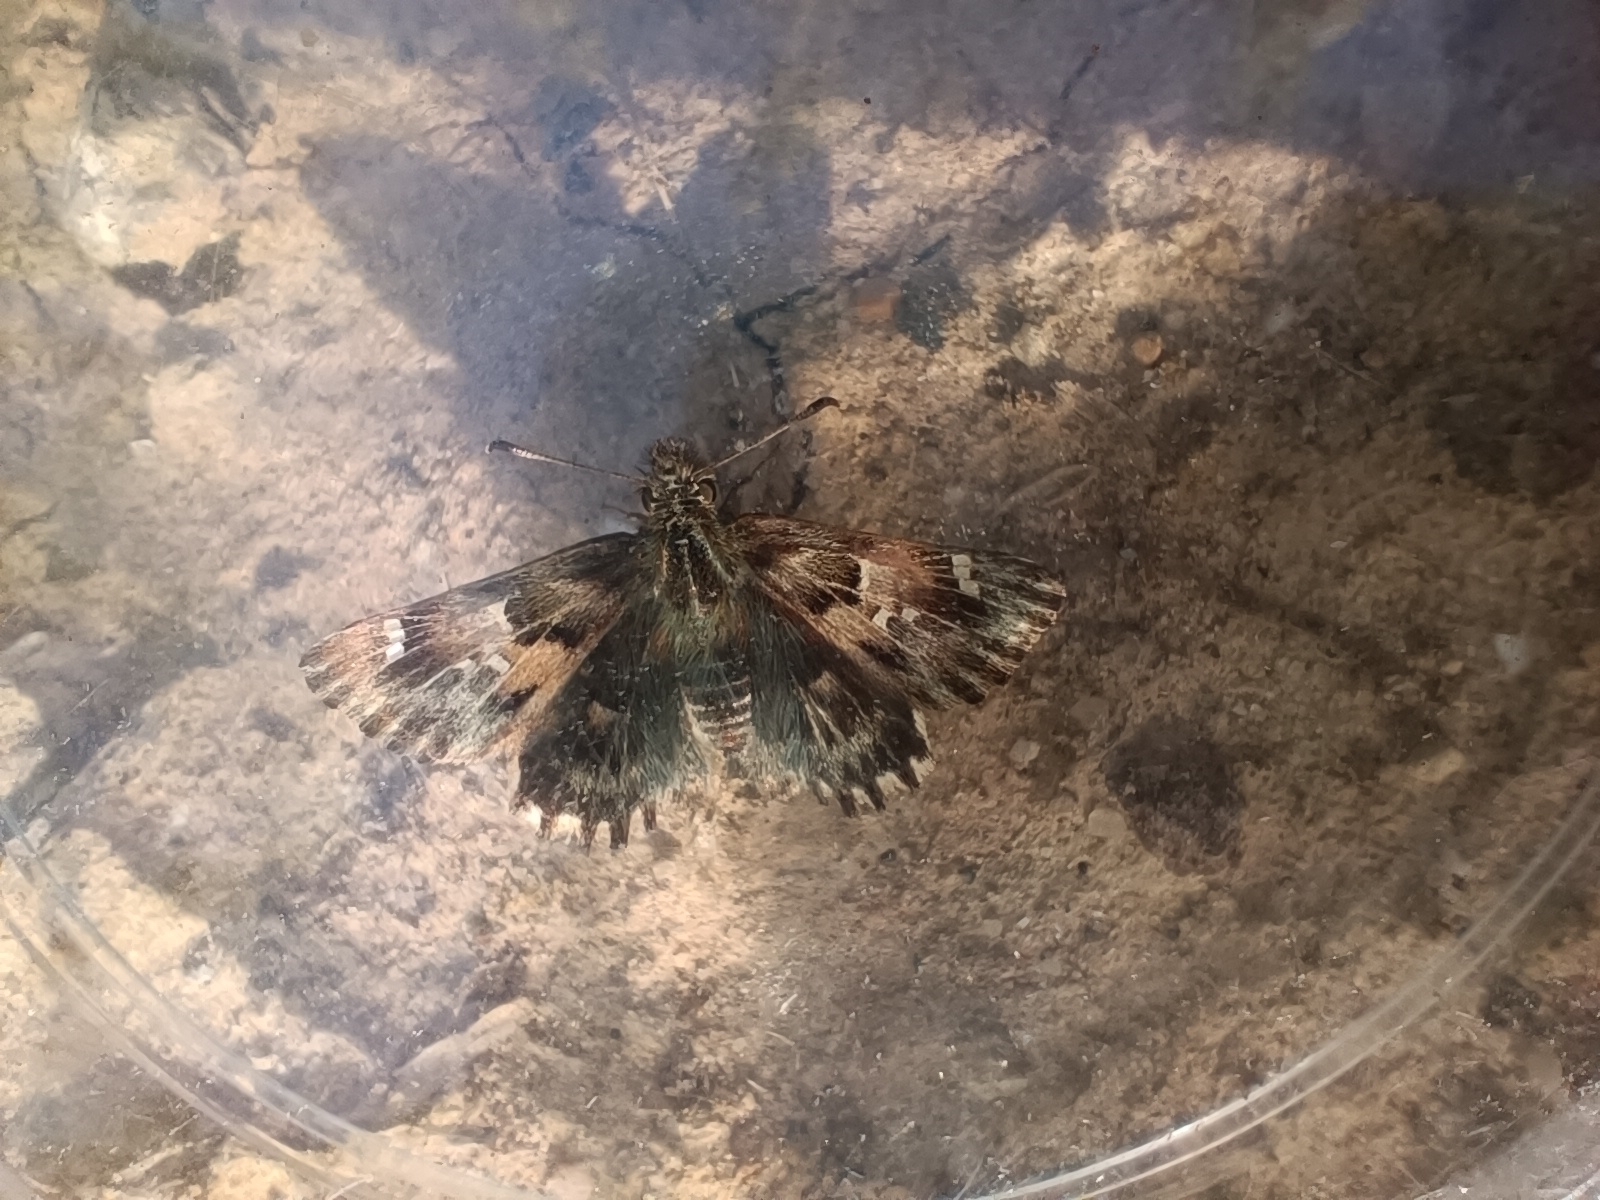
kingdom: Animalia
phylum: Arthropoda
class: Insecta
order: Lepidoptera
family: Hesperiidae
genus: Carcharodus
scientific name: Carcharodus alceae
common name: Mallow skipper
